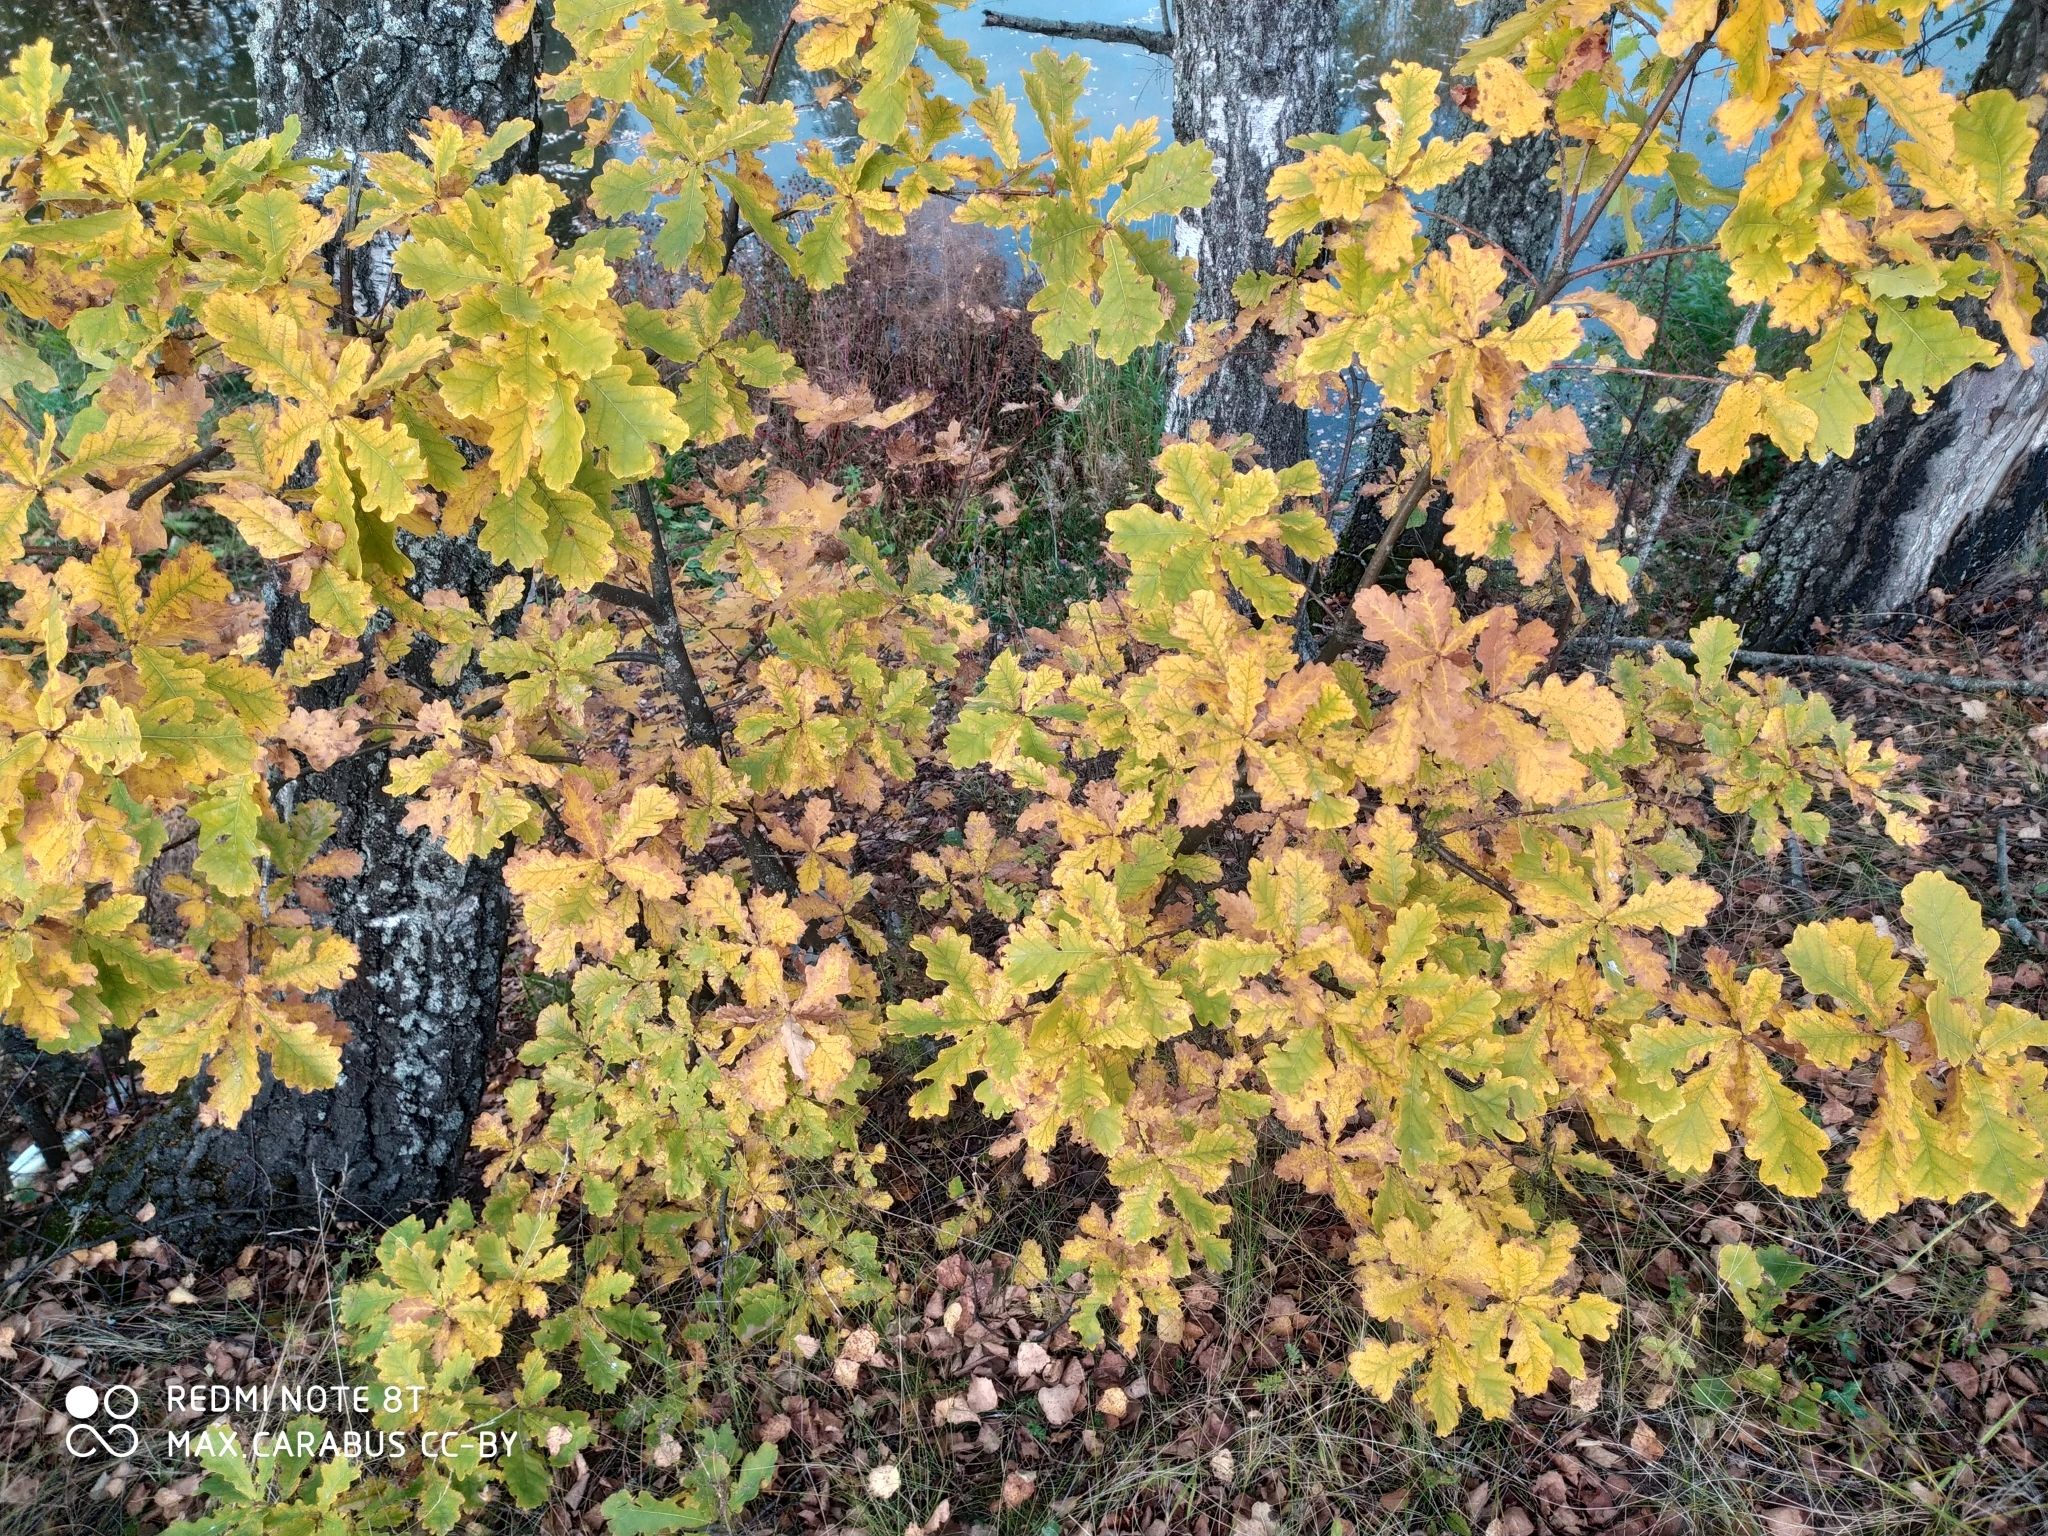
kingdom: Plantae
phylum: Tracheophyta
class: Magnoliopsida
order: Fagales
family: Fagaceae
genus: Quercus
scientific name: Quercus robur
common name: Pedunculate oak
